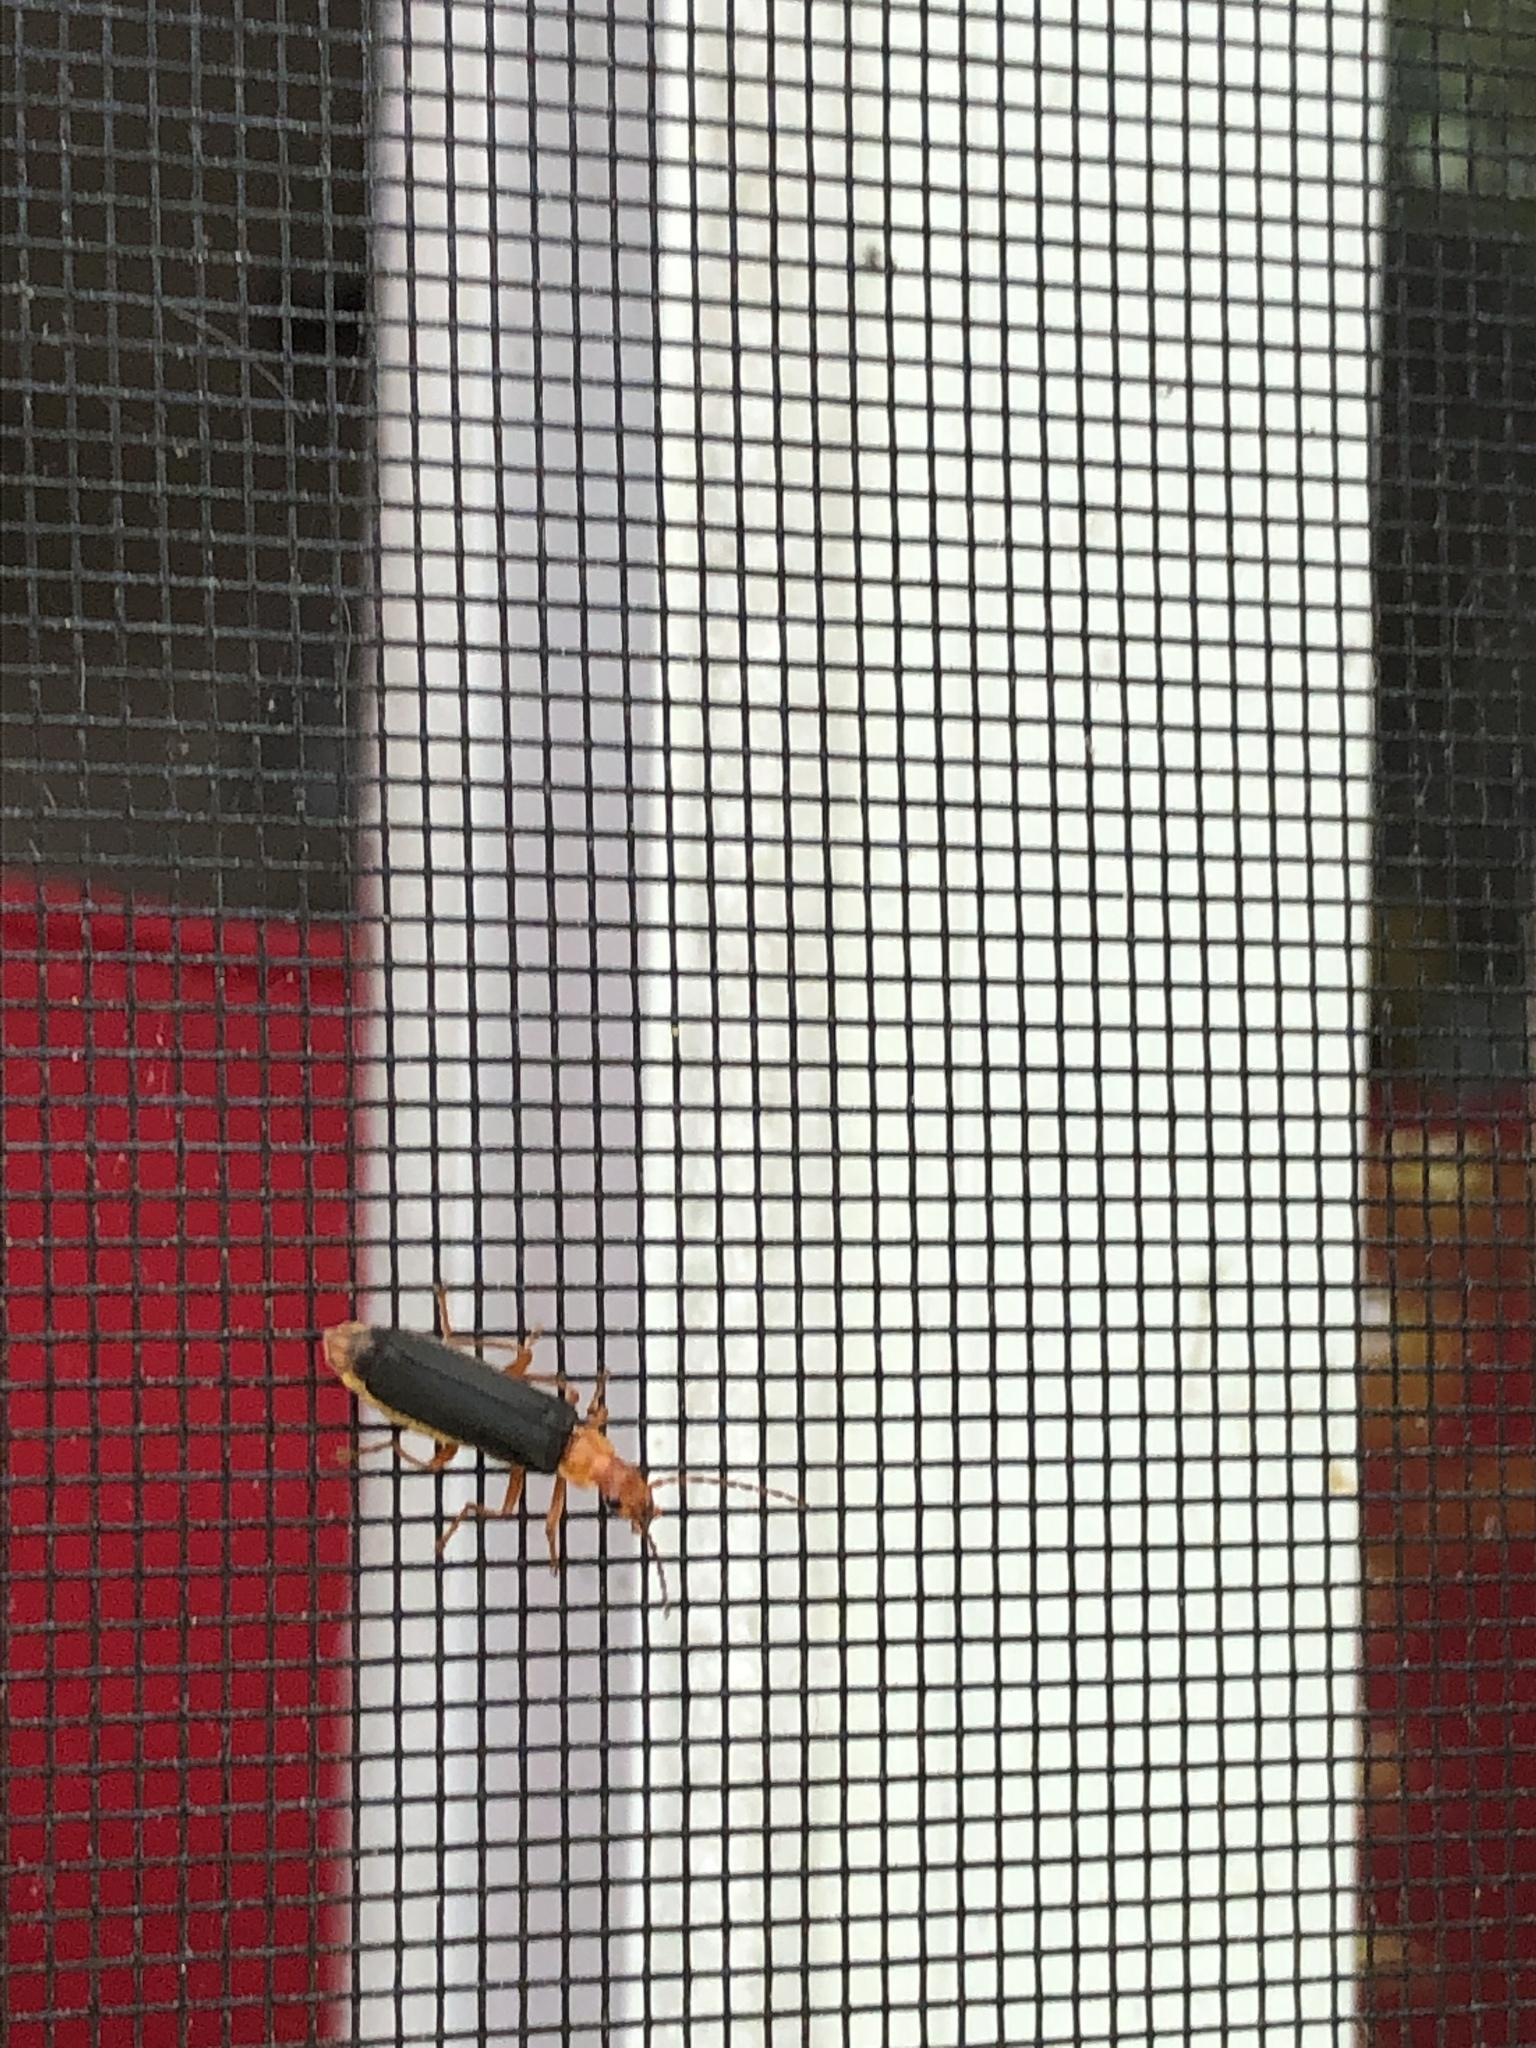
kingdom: Animalia
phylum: Arthropoda
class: Insecta
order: Coleoptera
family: Cantharidae
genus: Podabrus
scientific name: Podabrus pruinosus
